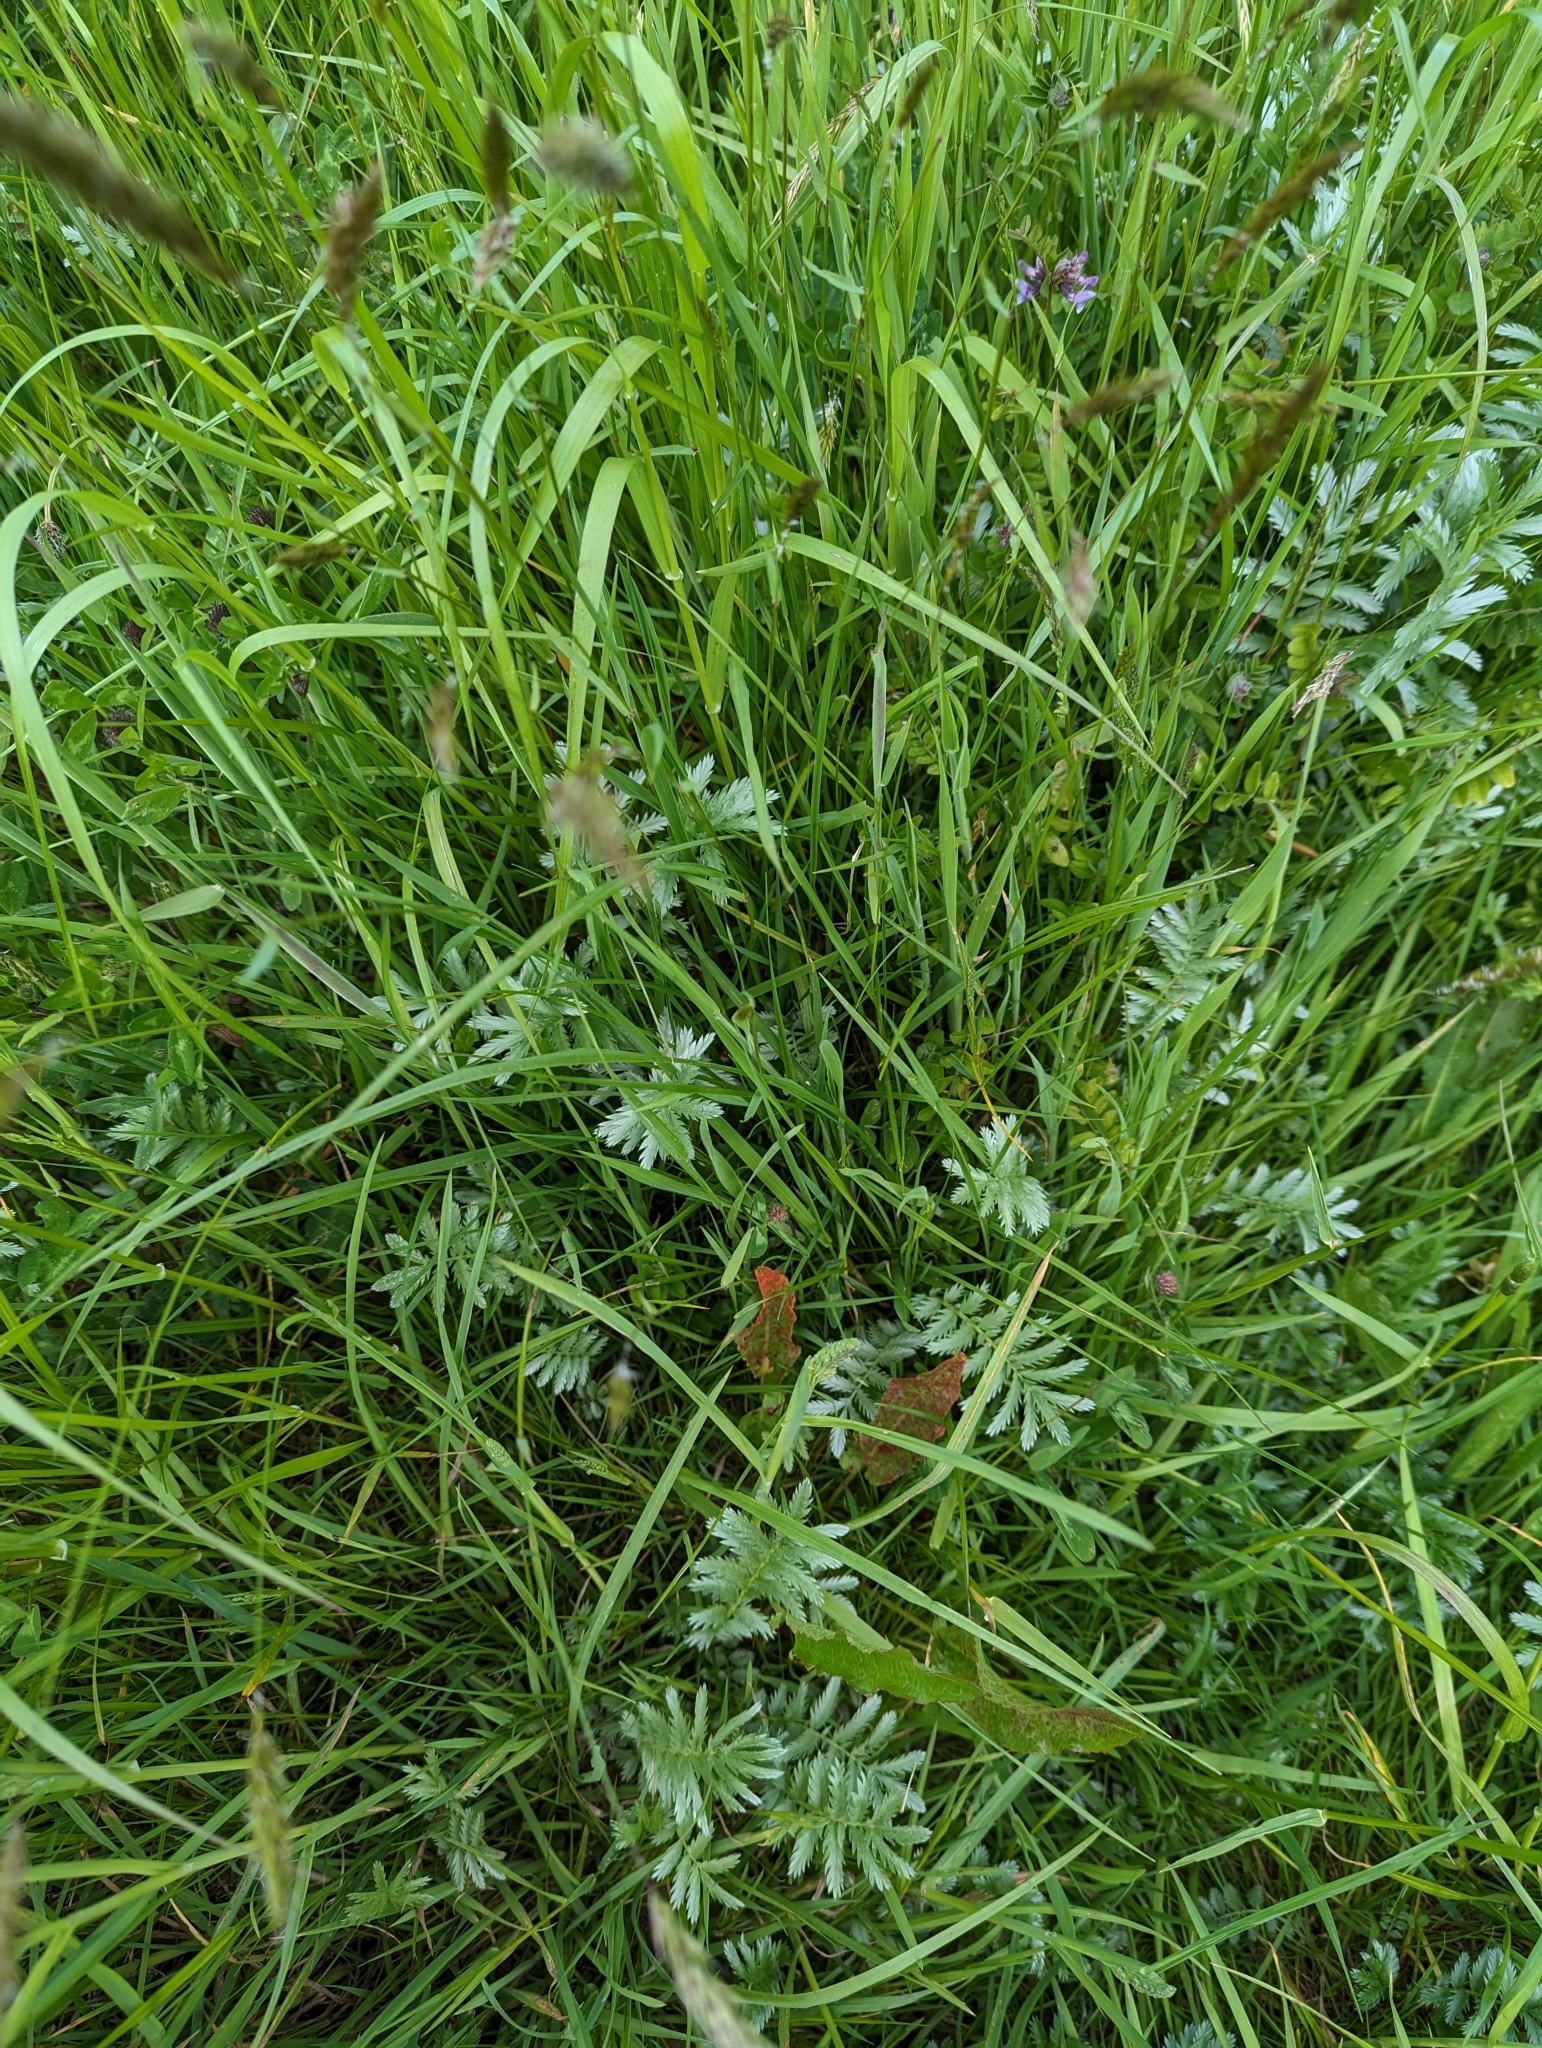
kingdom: Plantae
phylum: Tracheophyta
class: Magnoliopsida
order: Rosales
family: Rosaceae
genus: Argentina
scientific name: Argentina anserina
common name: Common silverweed
